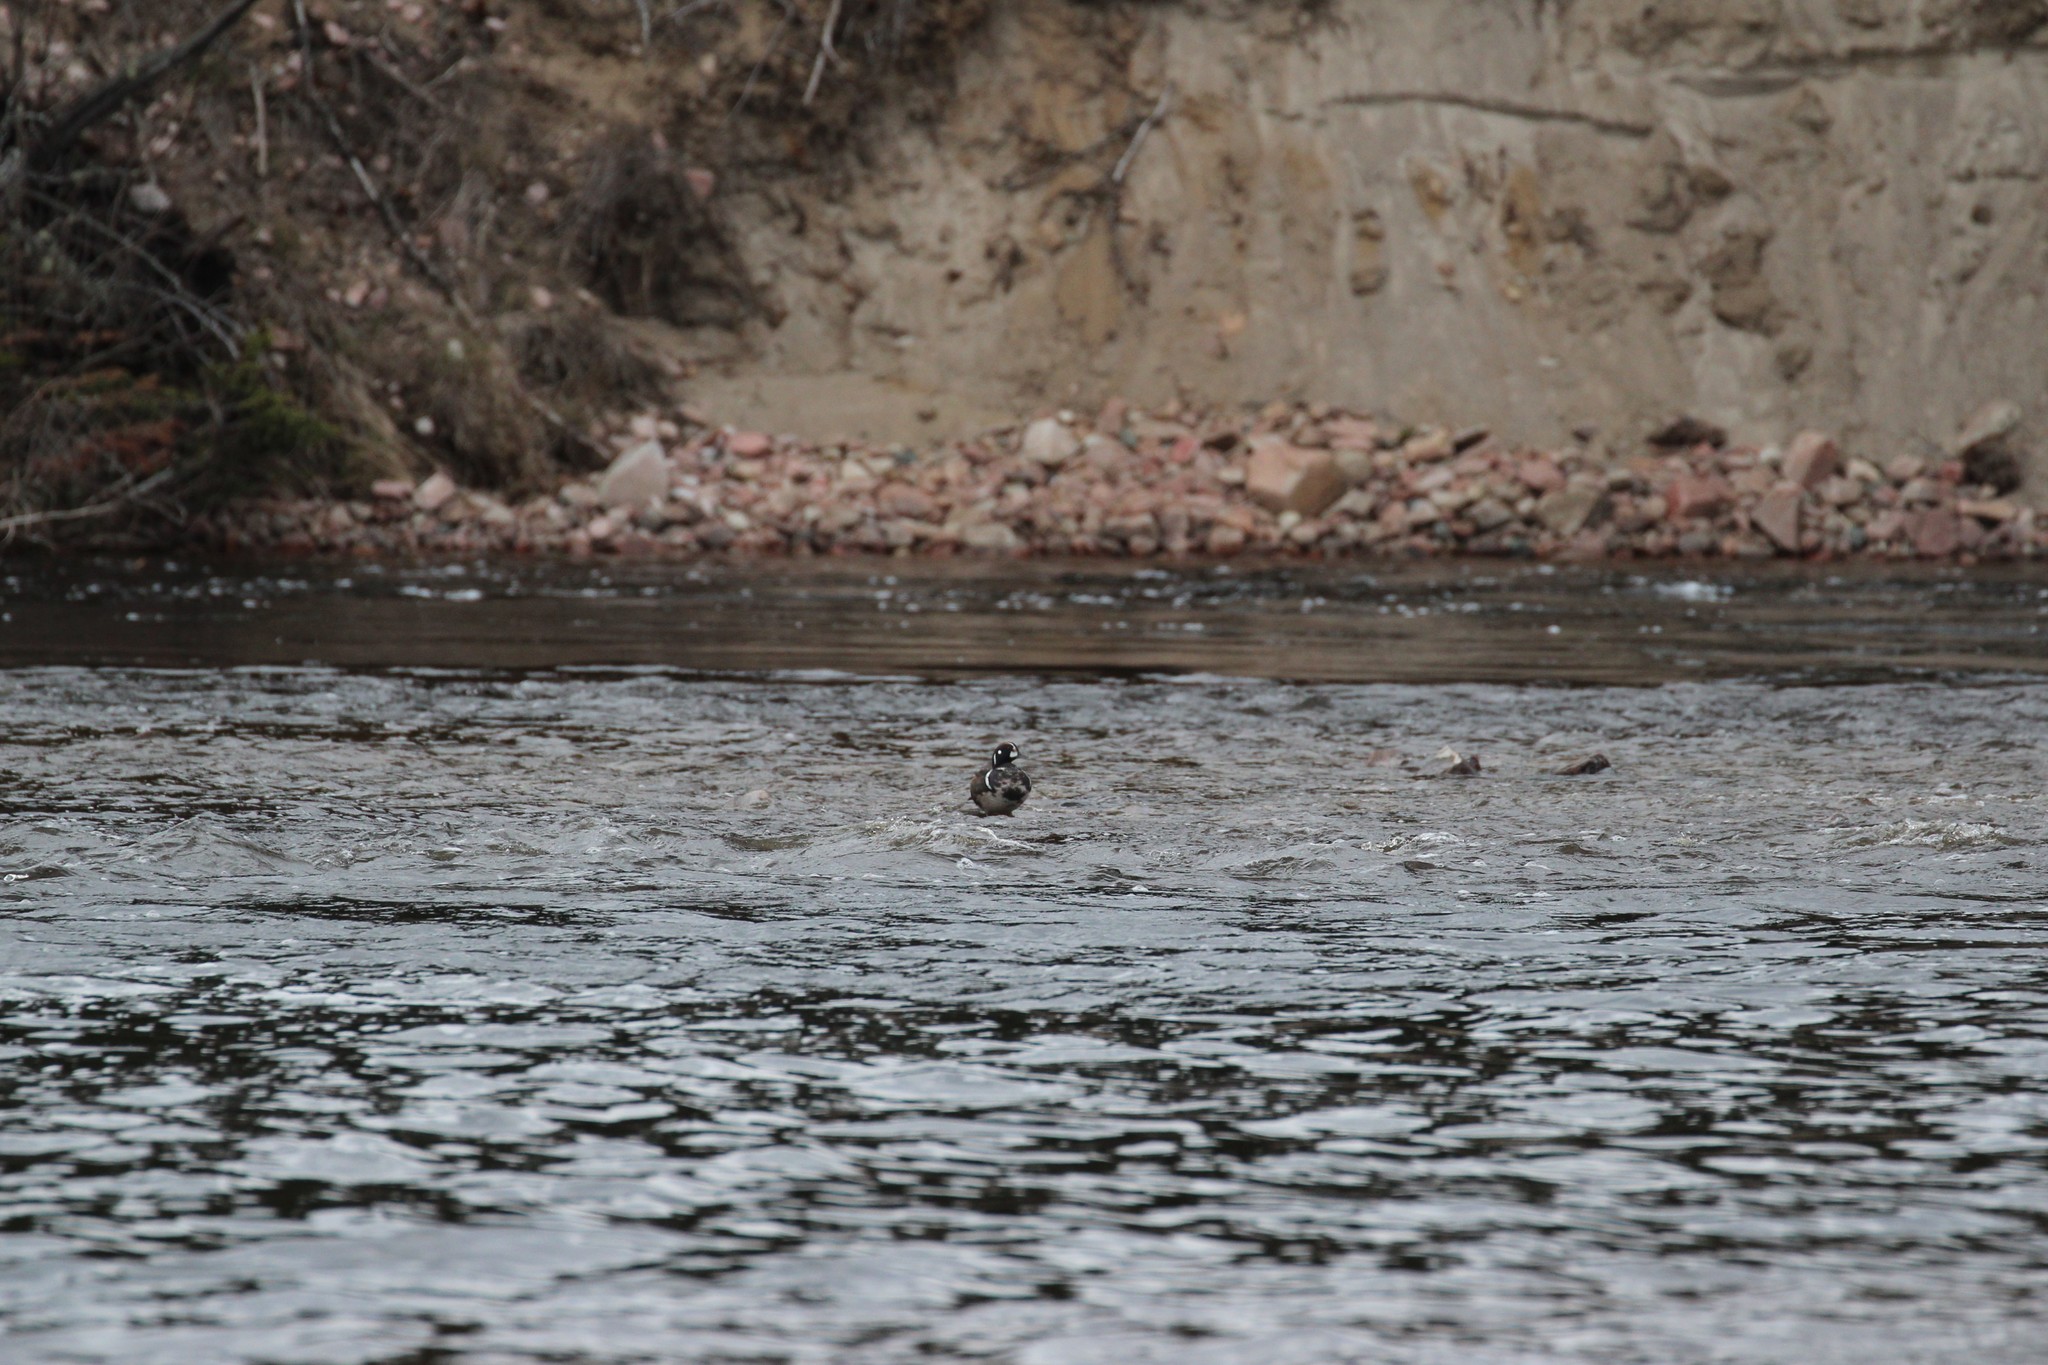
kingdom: Animalia
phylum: Chordata
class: Aves
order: Anseriformes
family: Anatidae
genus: Histrionicus
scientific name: Histrionicus histrionicus
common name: Harlequin duck
